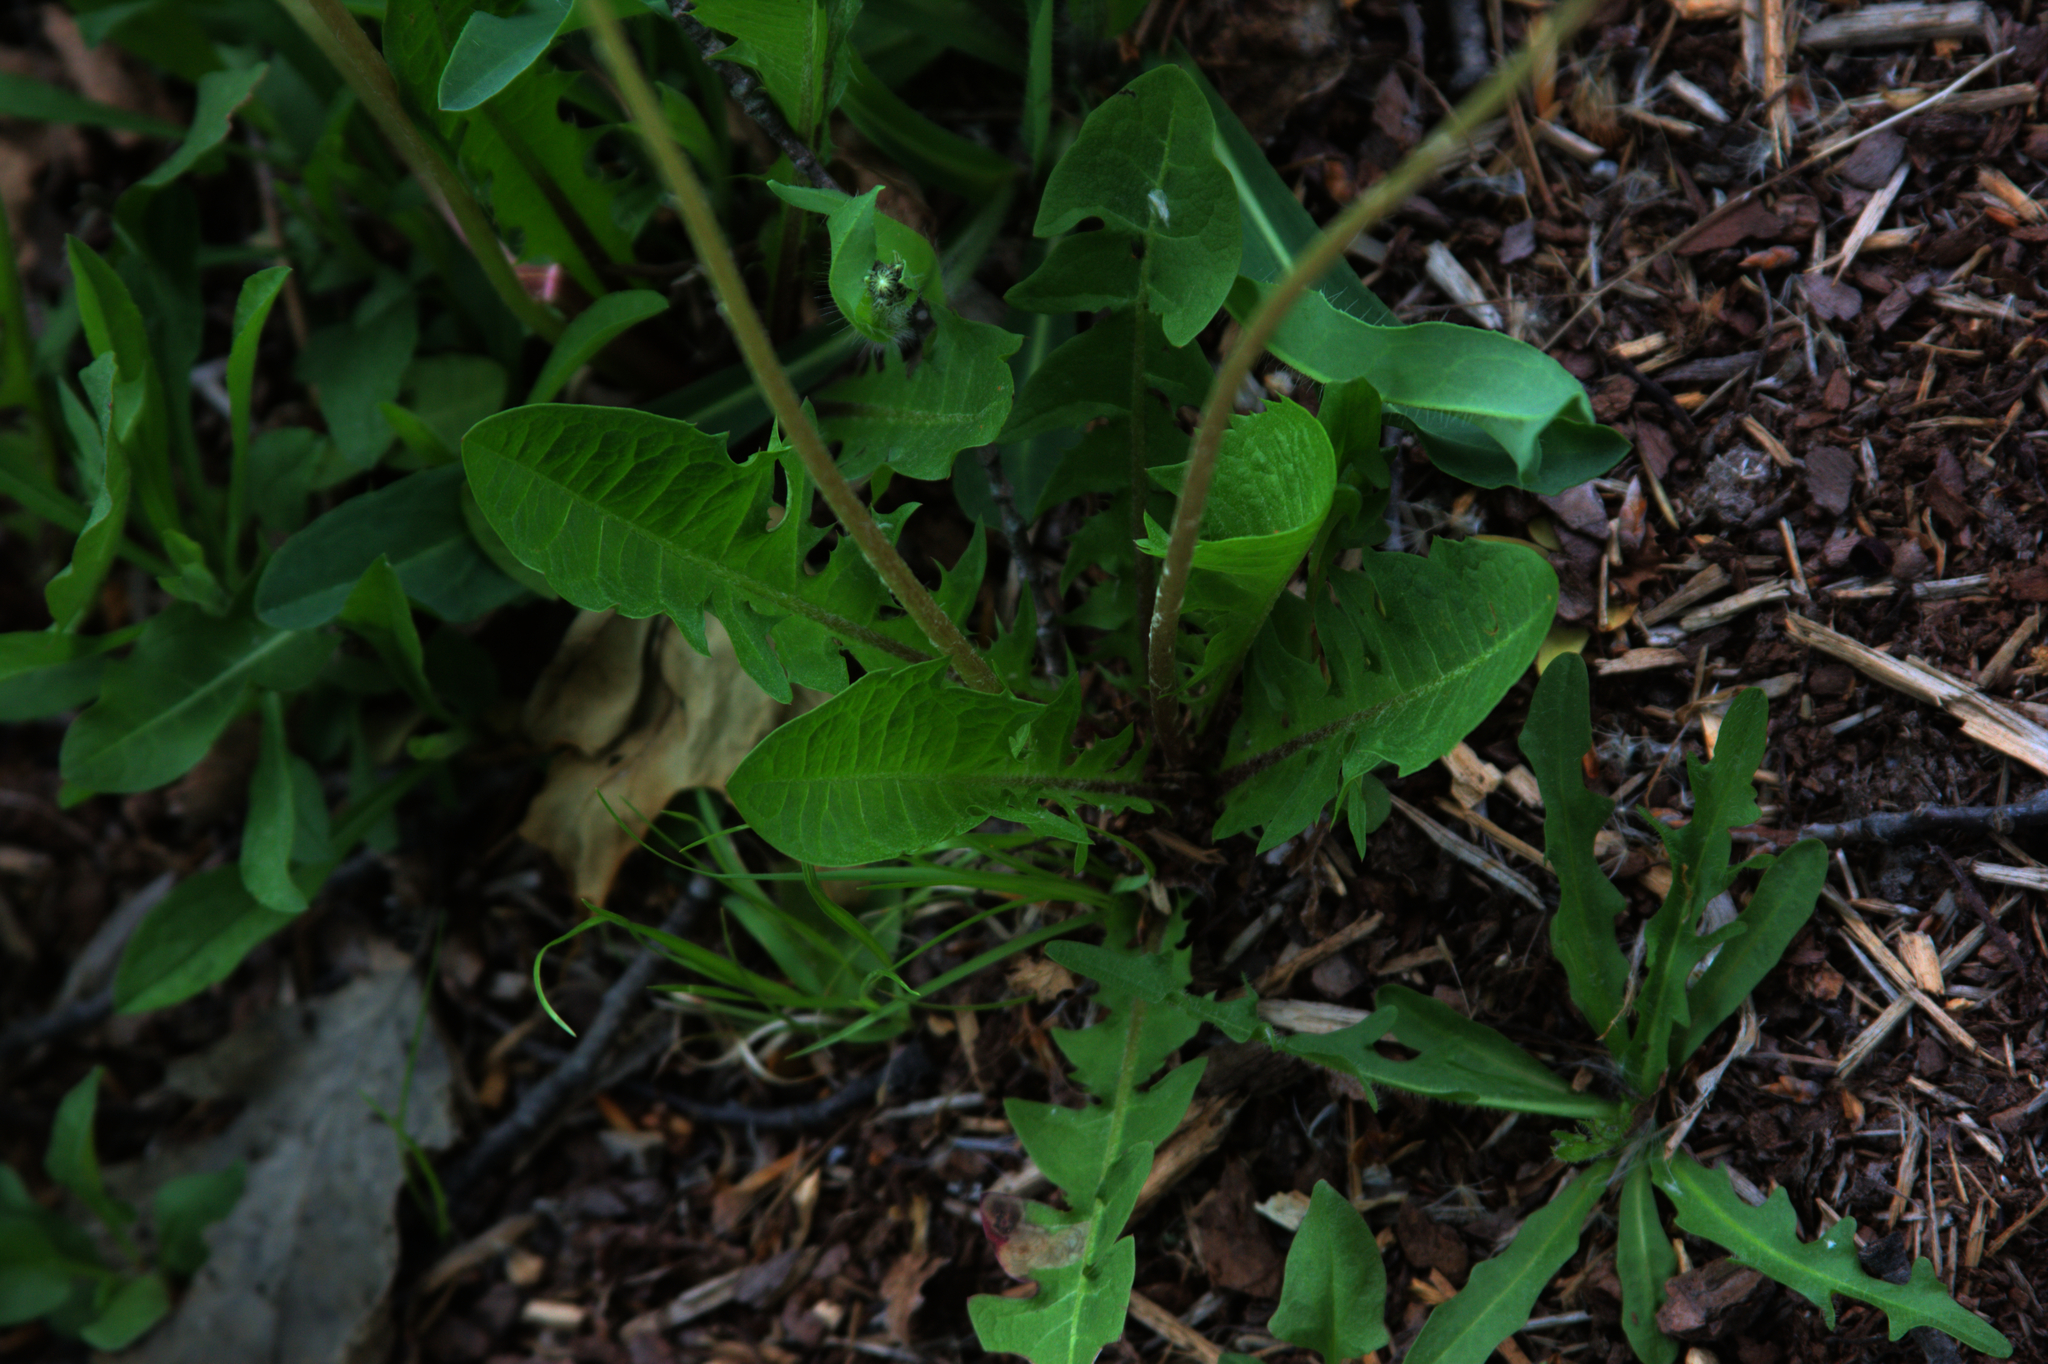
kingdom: Plantae
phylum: Tracheophyta
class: Magnoliopsida
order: Asterales
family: Asteraceae
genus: Taraxacum
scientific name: Taraxacum officinale
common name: Common dandelion
